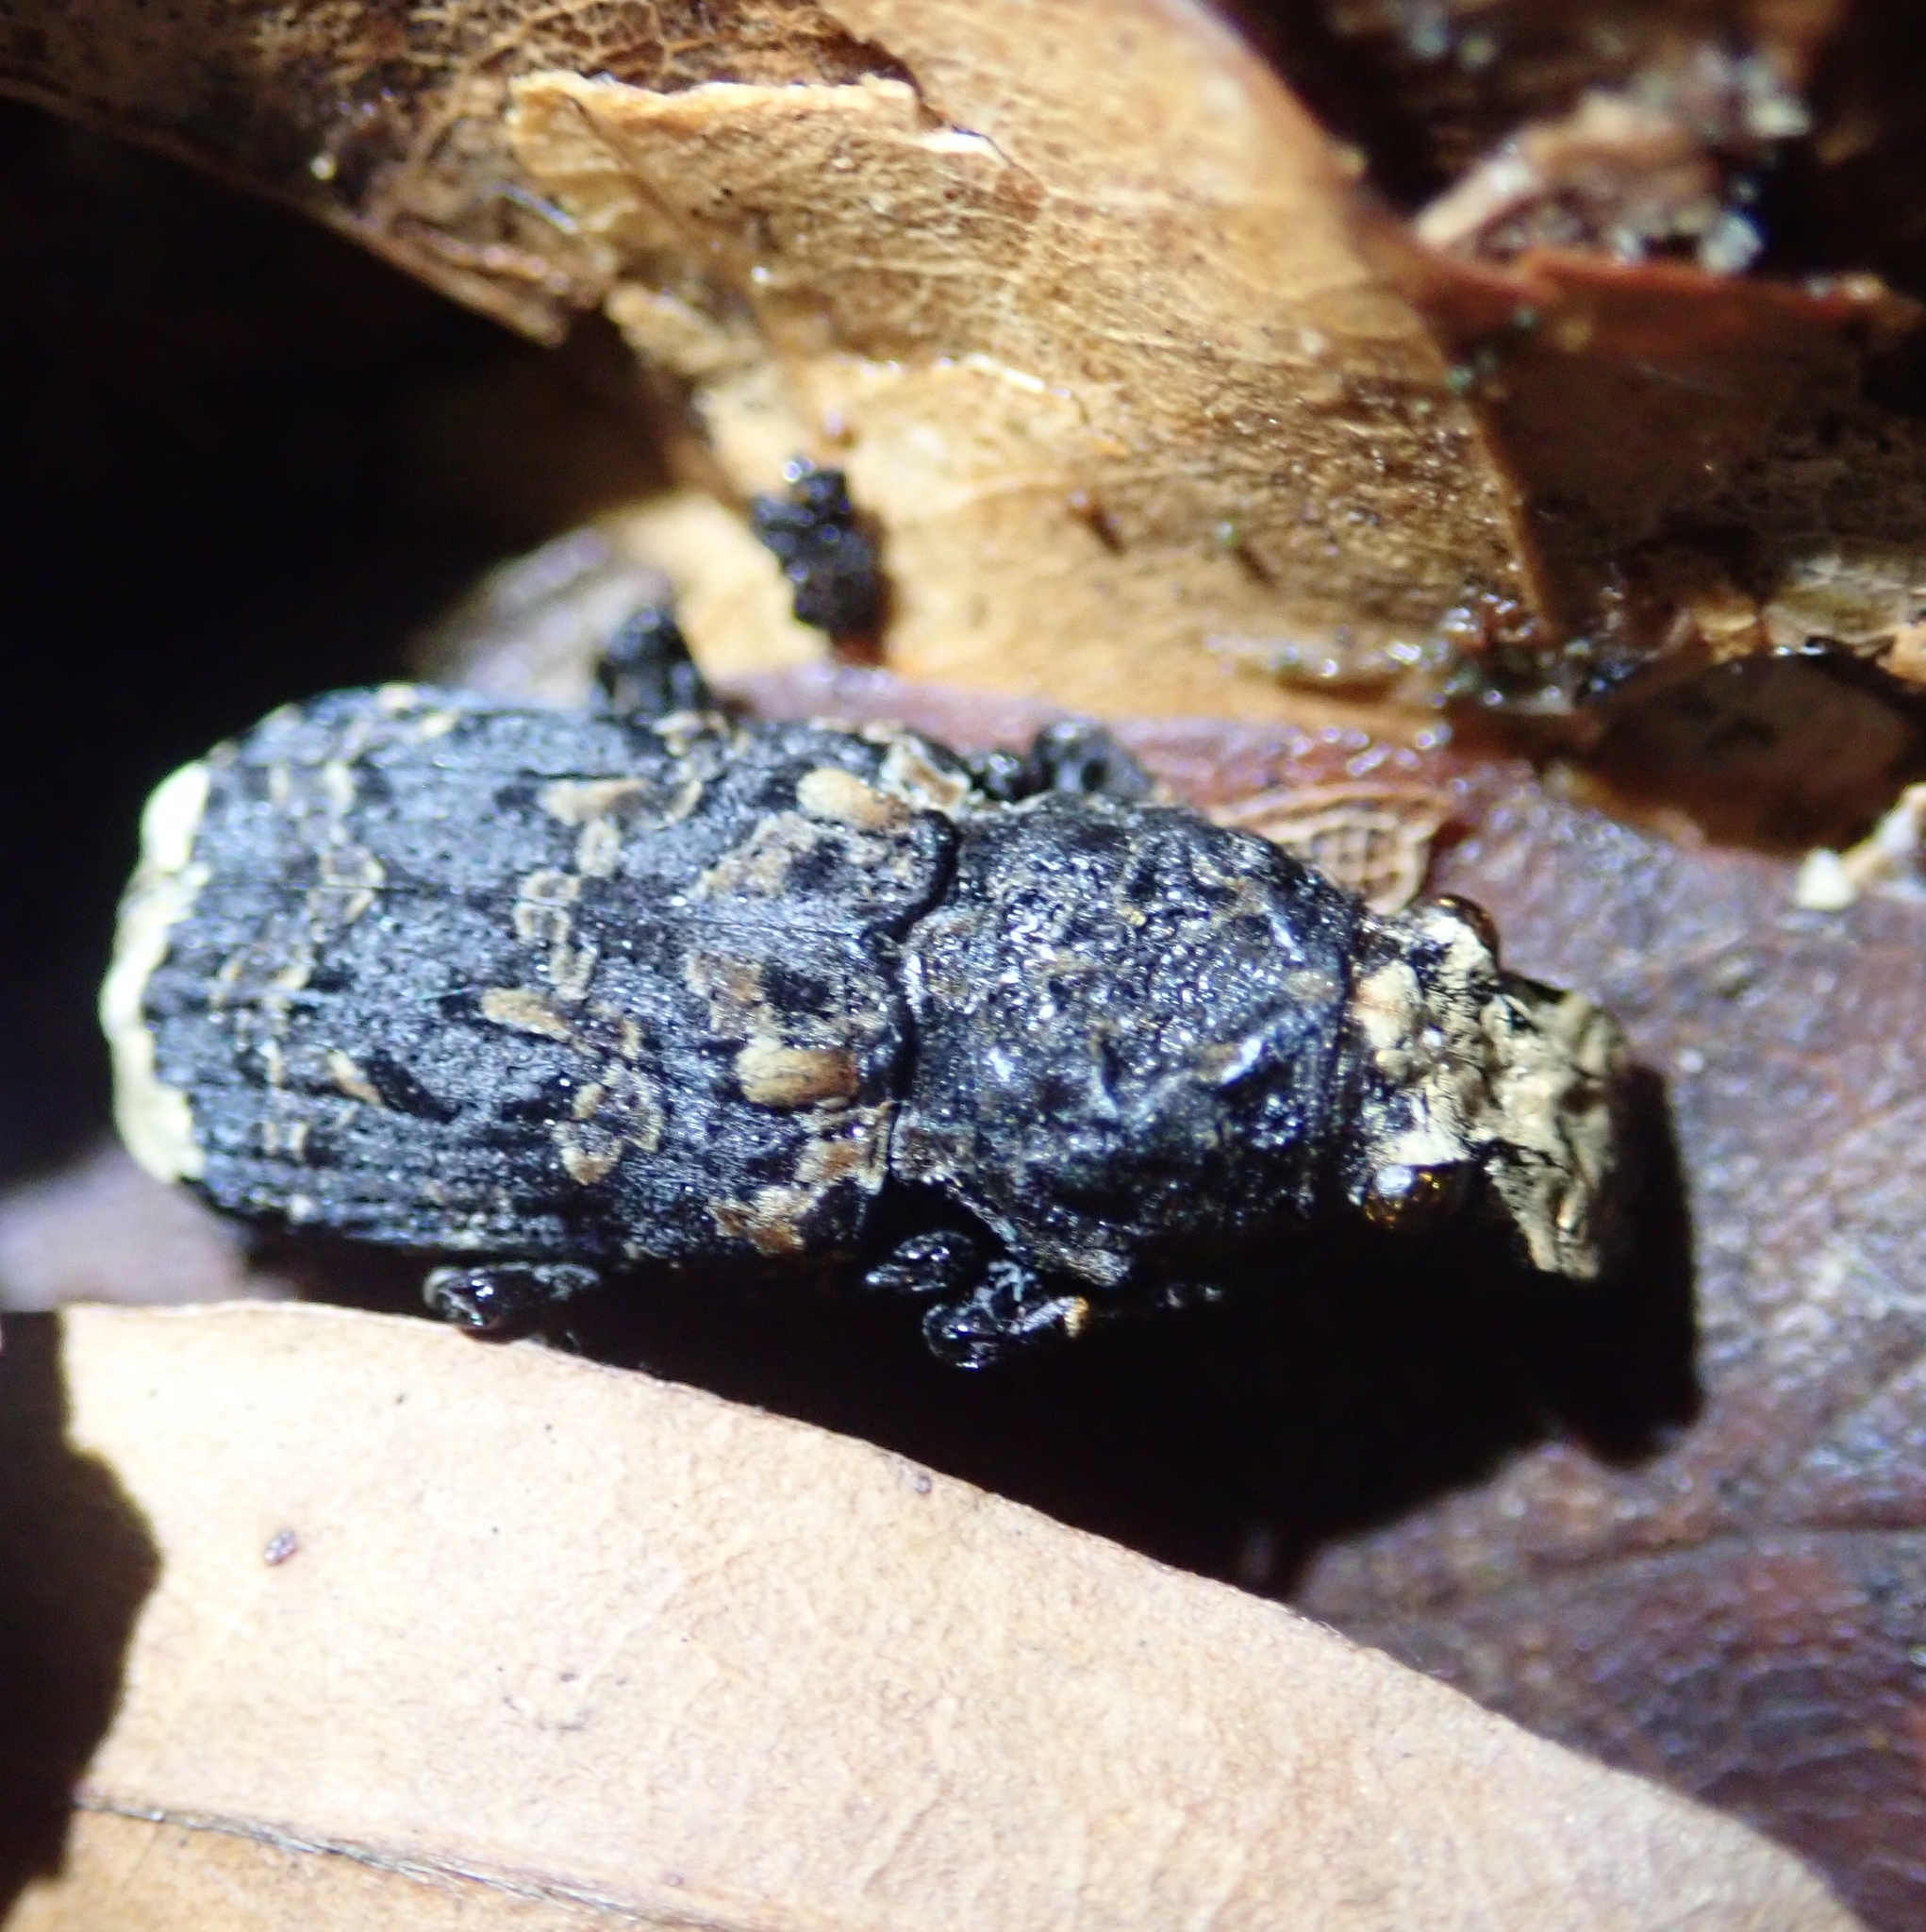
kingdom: Animalia
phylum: Arthropoda
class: Insecta
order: Coleoptera
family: Anthribidae
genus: Platyrhinus
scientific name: Platyrhinus resinosus
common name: Cramp-ball fungus weevil
